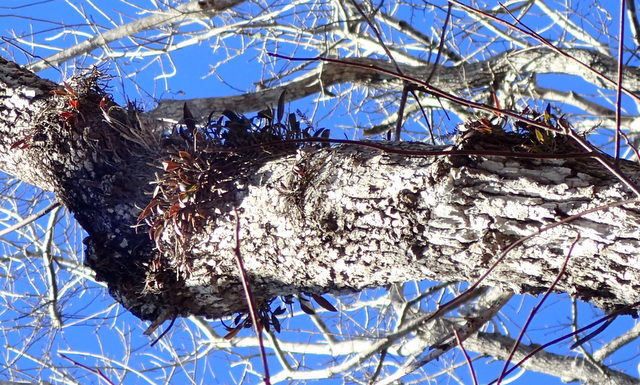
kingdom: Plantae
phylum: Tracheophyta
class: Liliopsida
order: Asparagales
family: Orchidaceae
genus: Epidendrum
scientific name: Epidendrum conopseum
